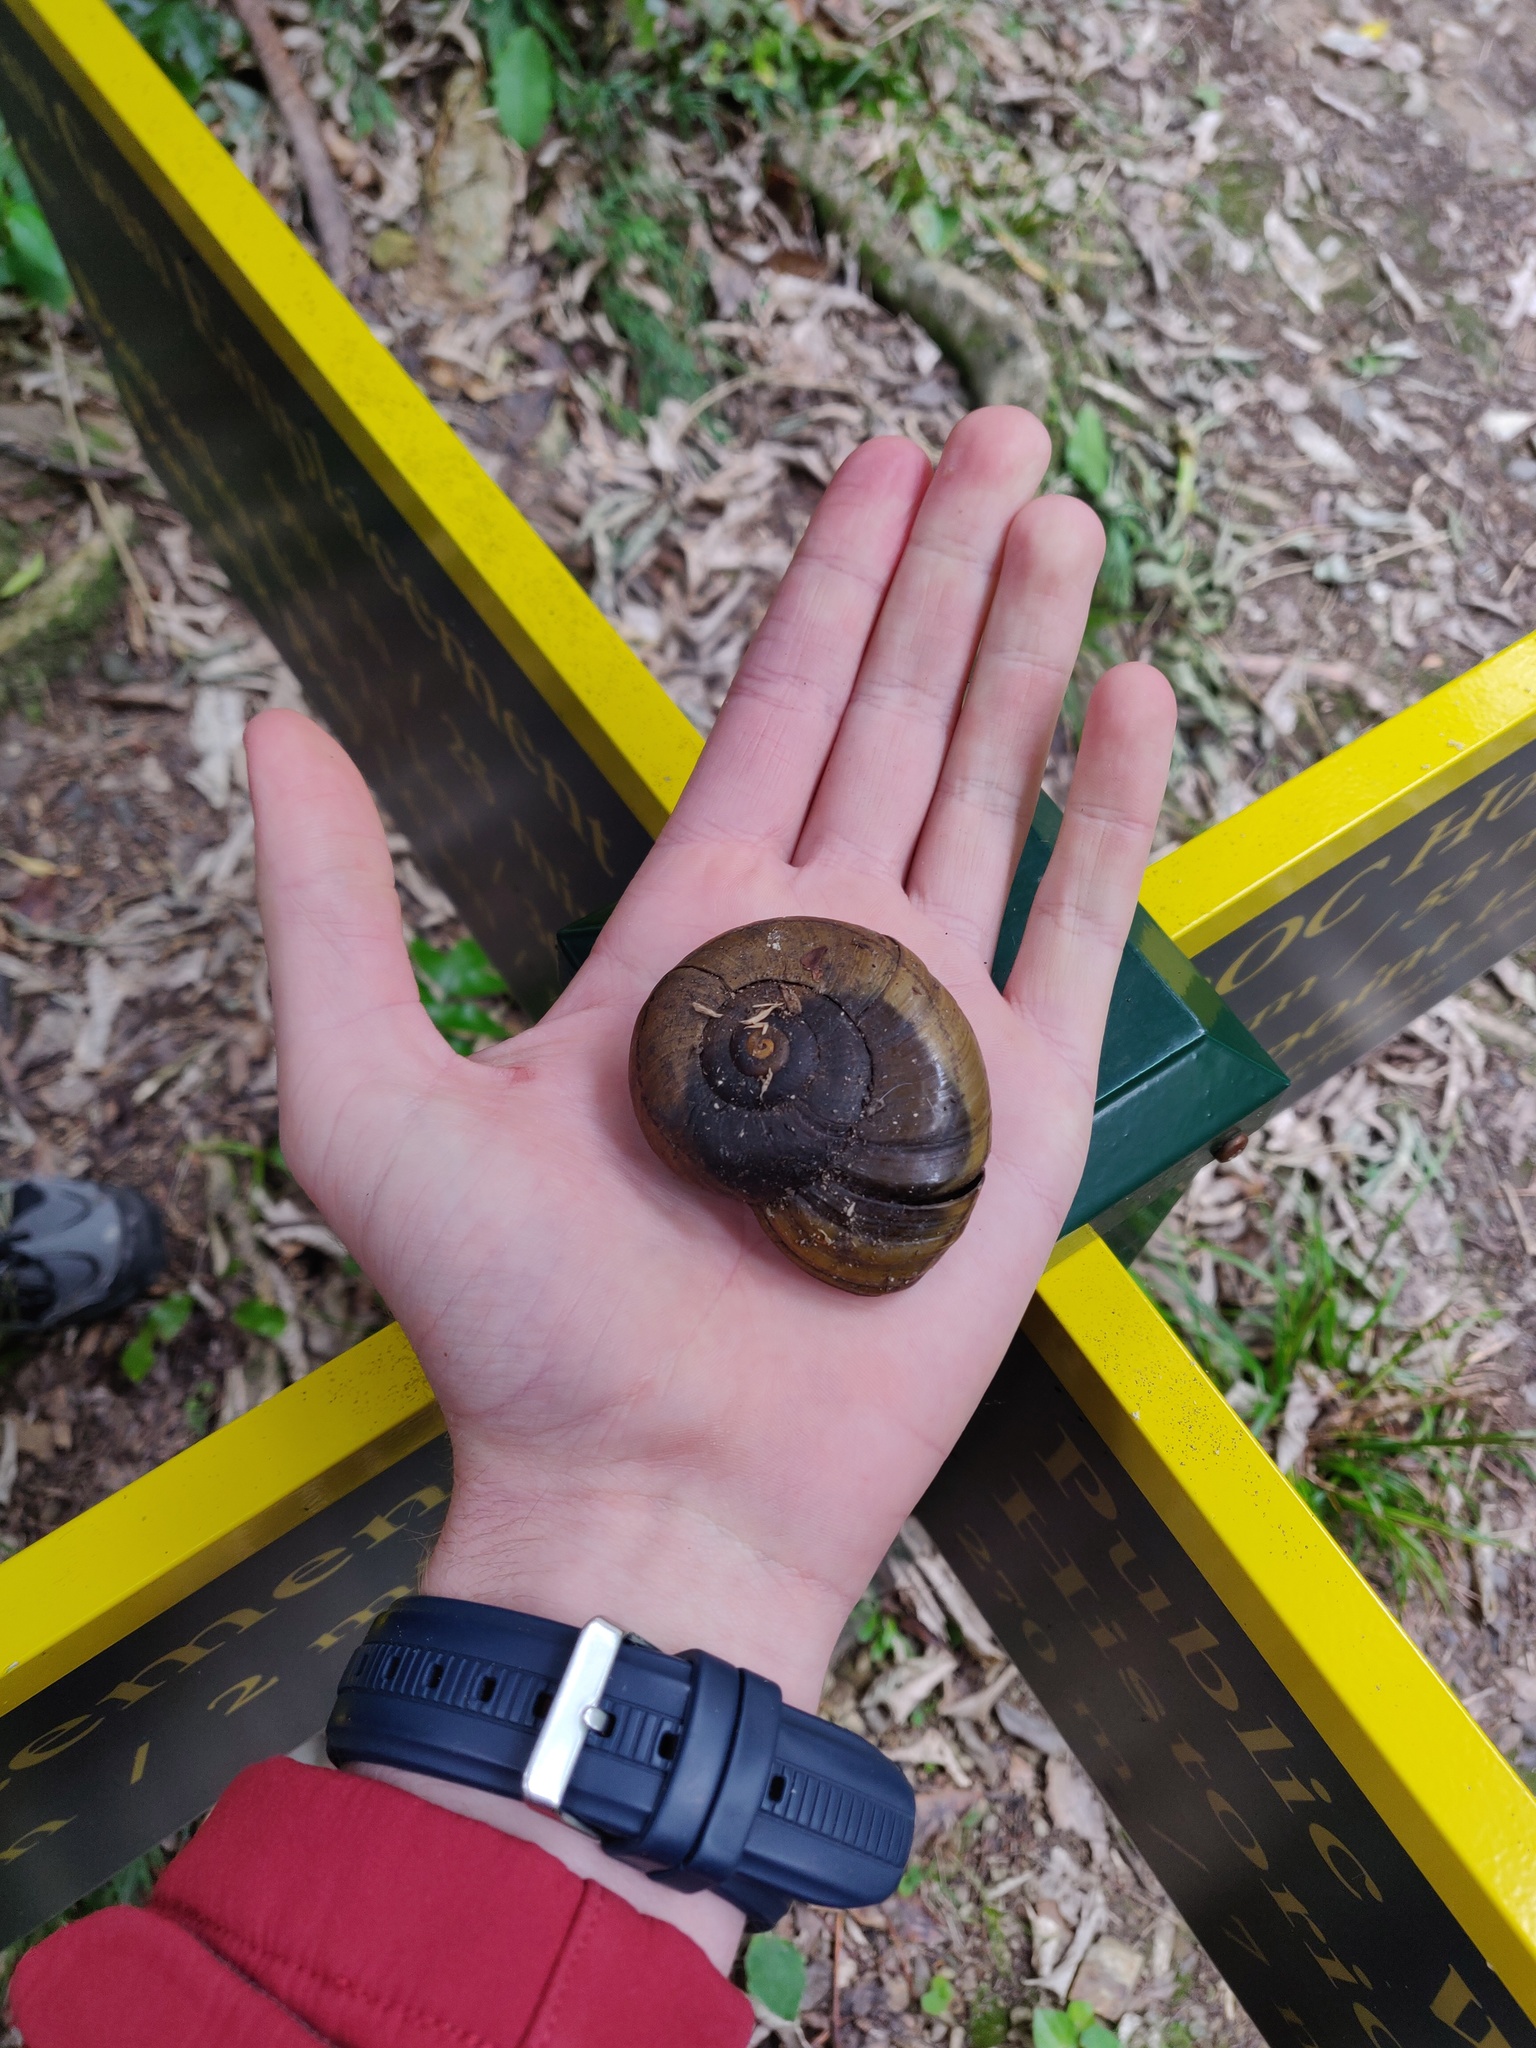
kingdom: Animalia
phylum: Mollusca
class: Gastropoda
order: Stylommatophora
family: Rhytididae
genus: Powelliphanta
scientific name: Powelliphanta hochstetteri
